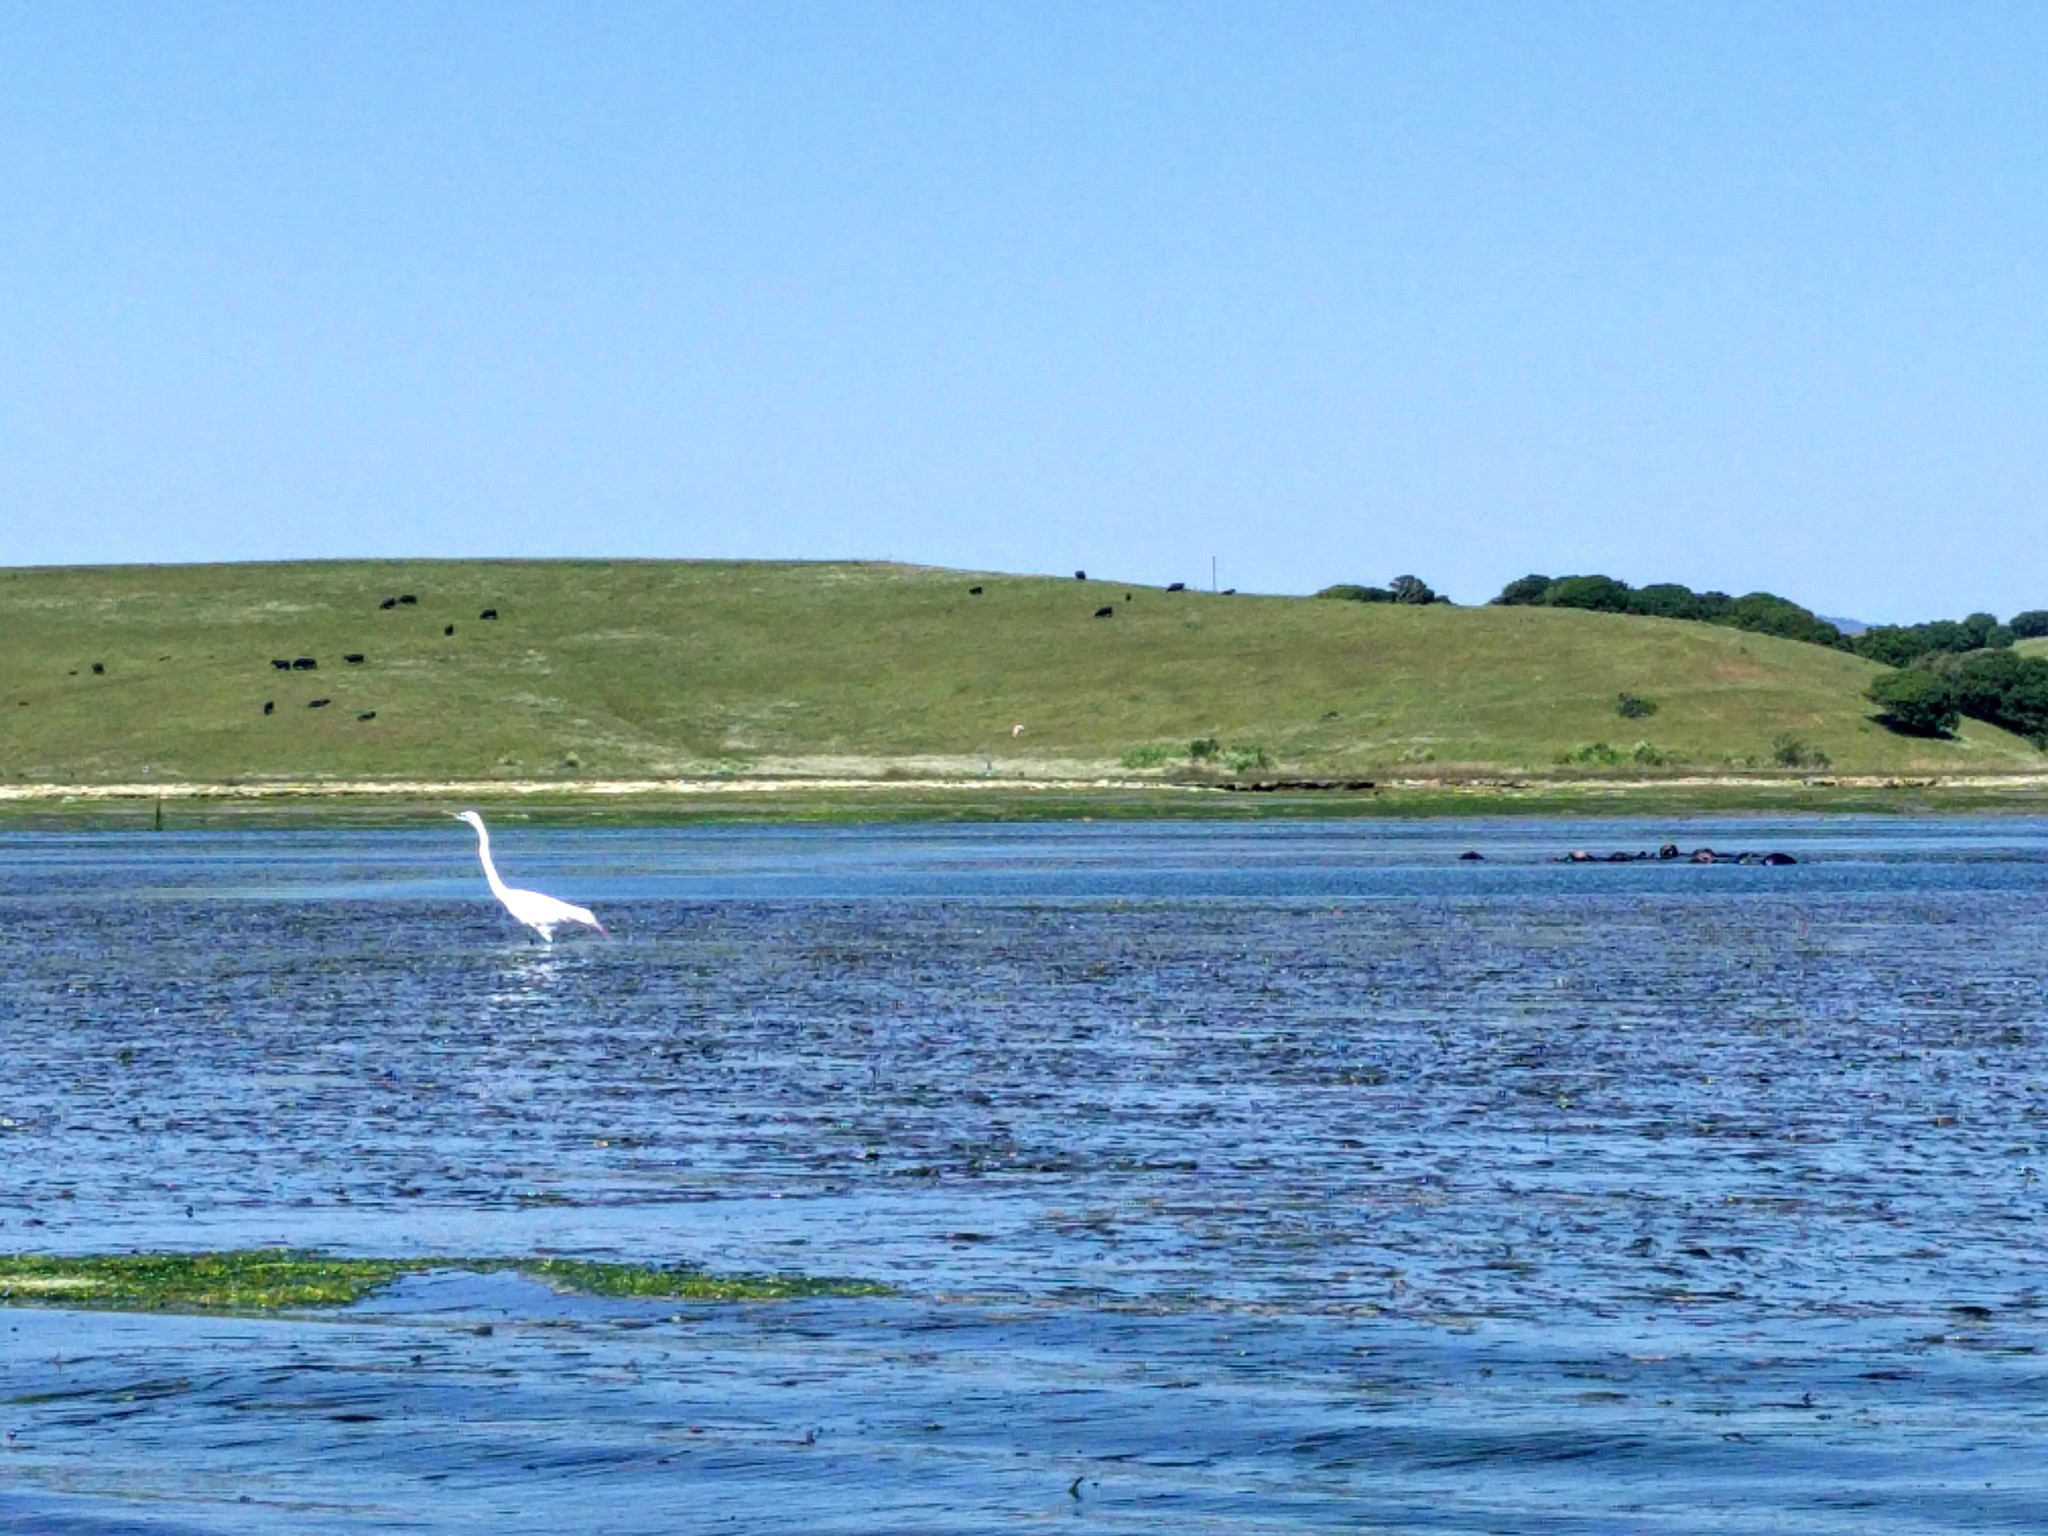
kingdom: Animalia
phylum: Chordata
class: Aves
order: Pelecaniformes
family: Ardeidae
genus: Ardea
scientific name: Ardea alba
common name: Great egret
